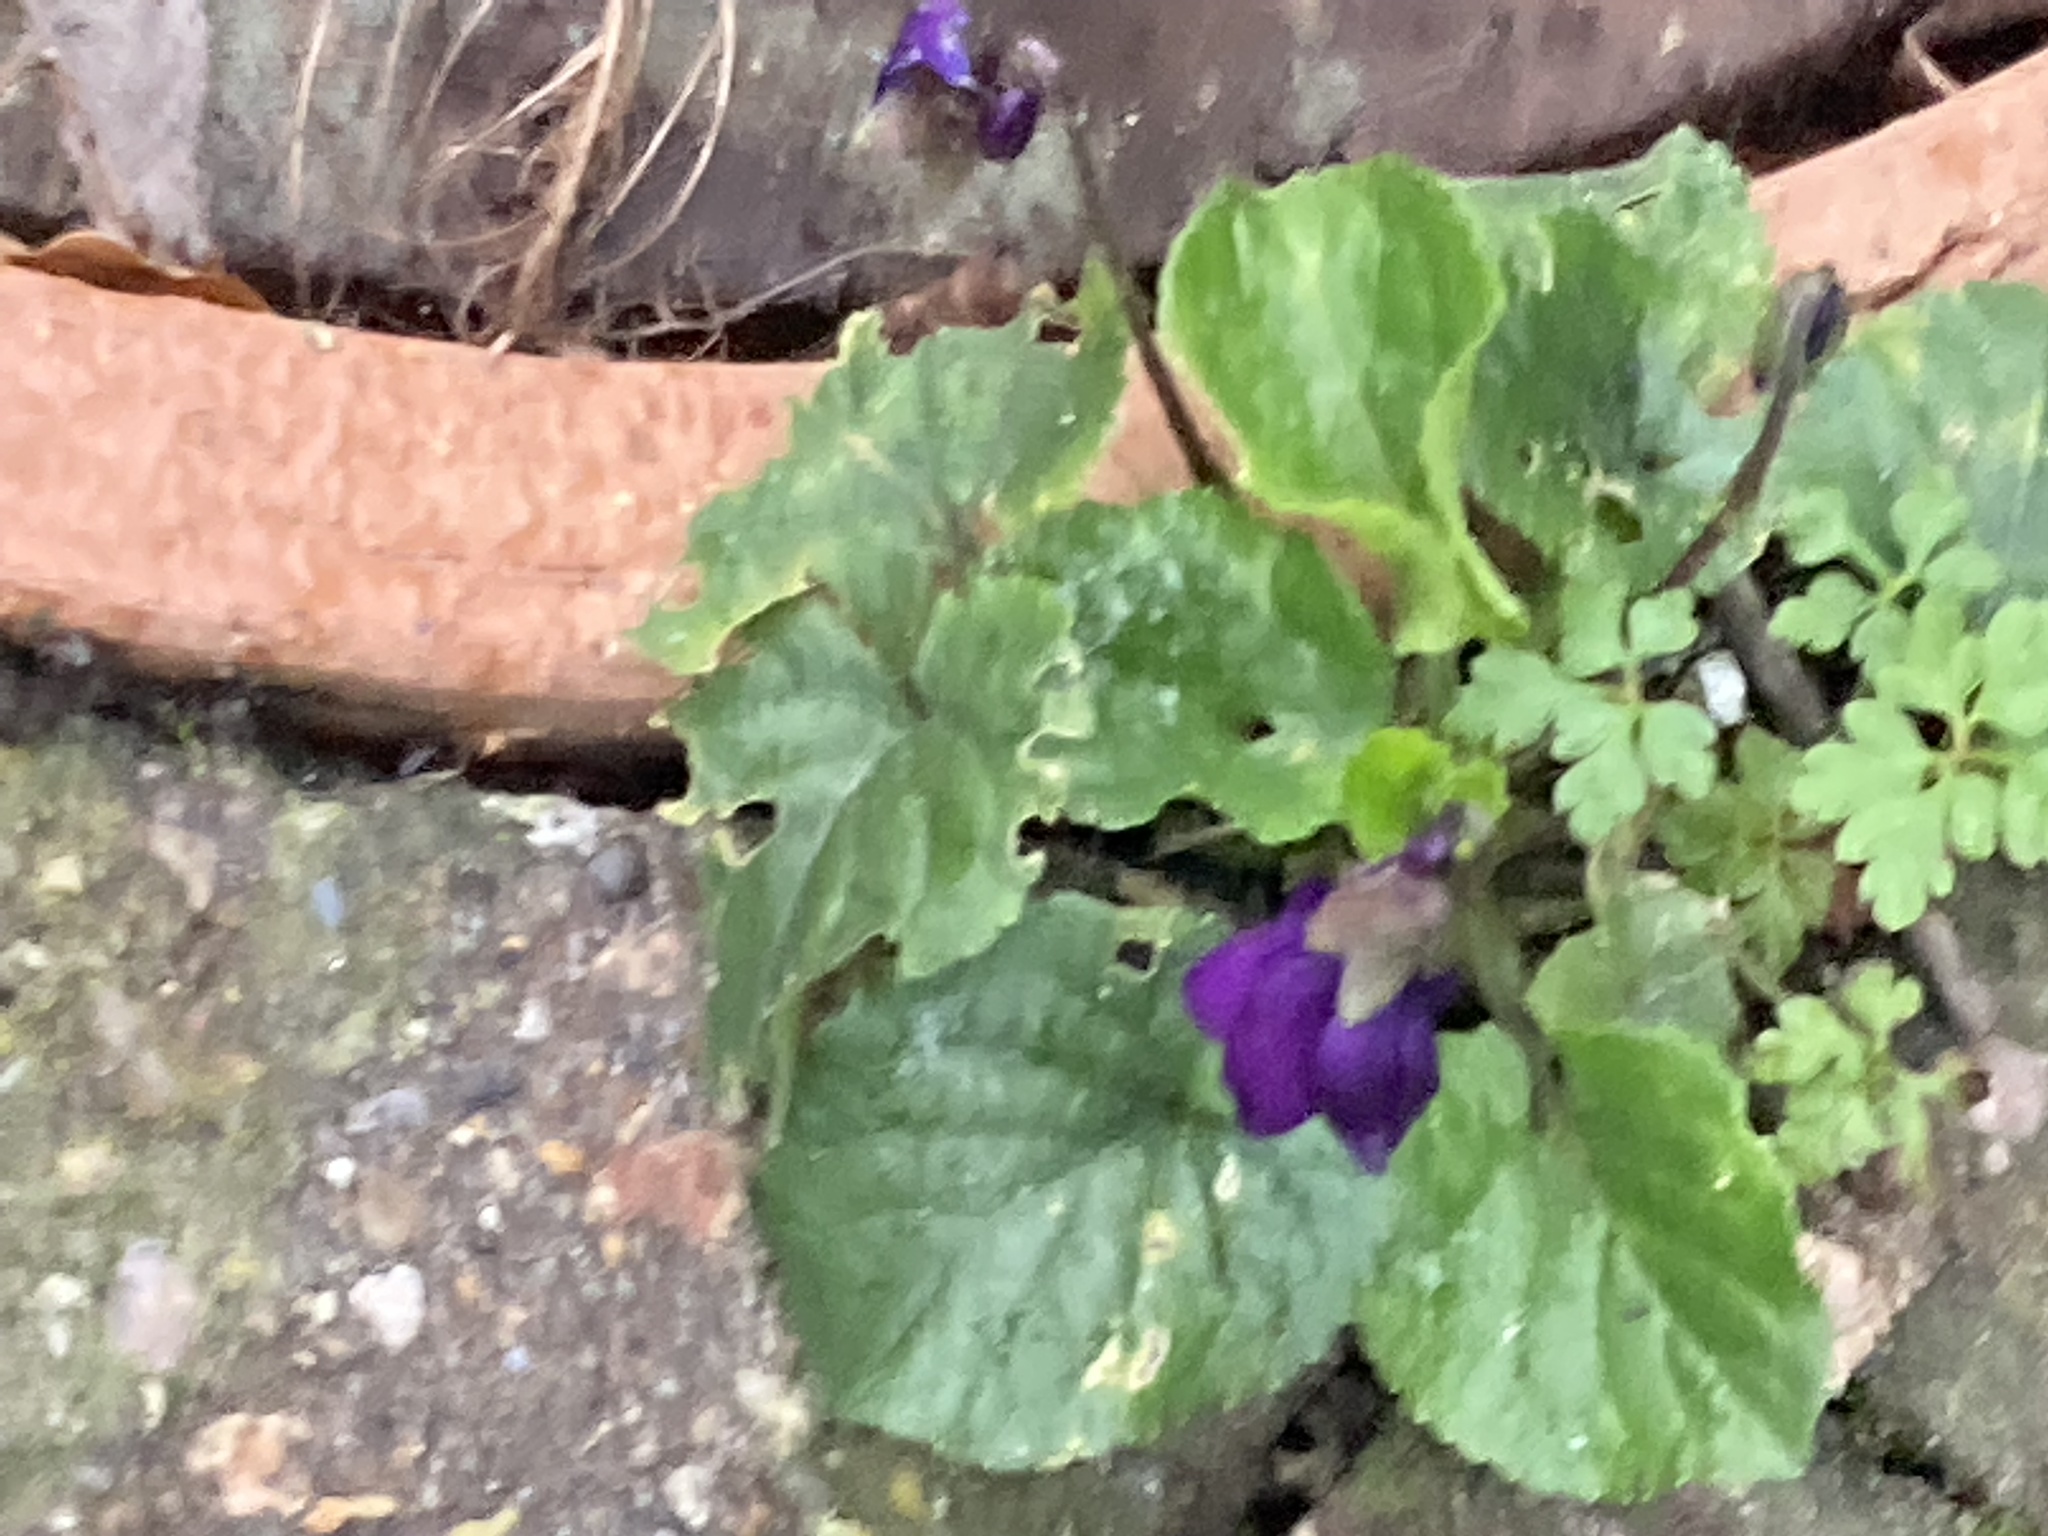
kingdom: Plantae
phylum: Tracheophyta
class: Magnoliopsida
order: Malpighiales
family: Violaceae
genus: Viola
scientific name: Viola odorata
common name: Sweet violet
